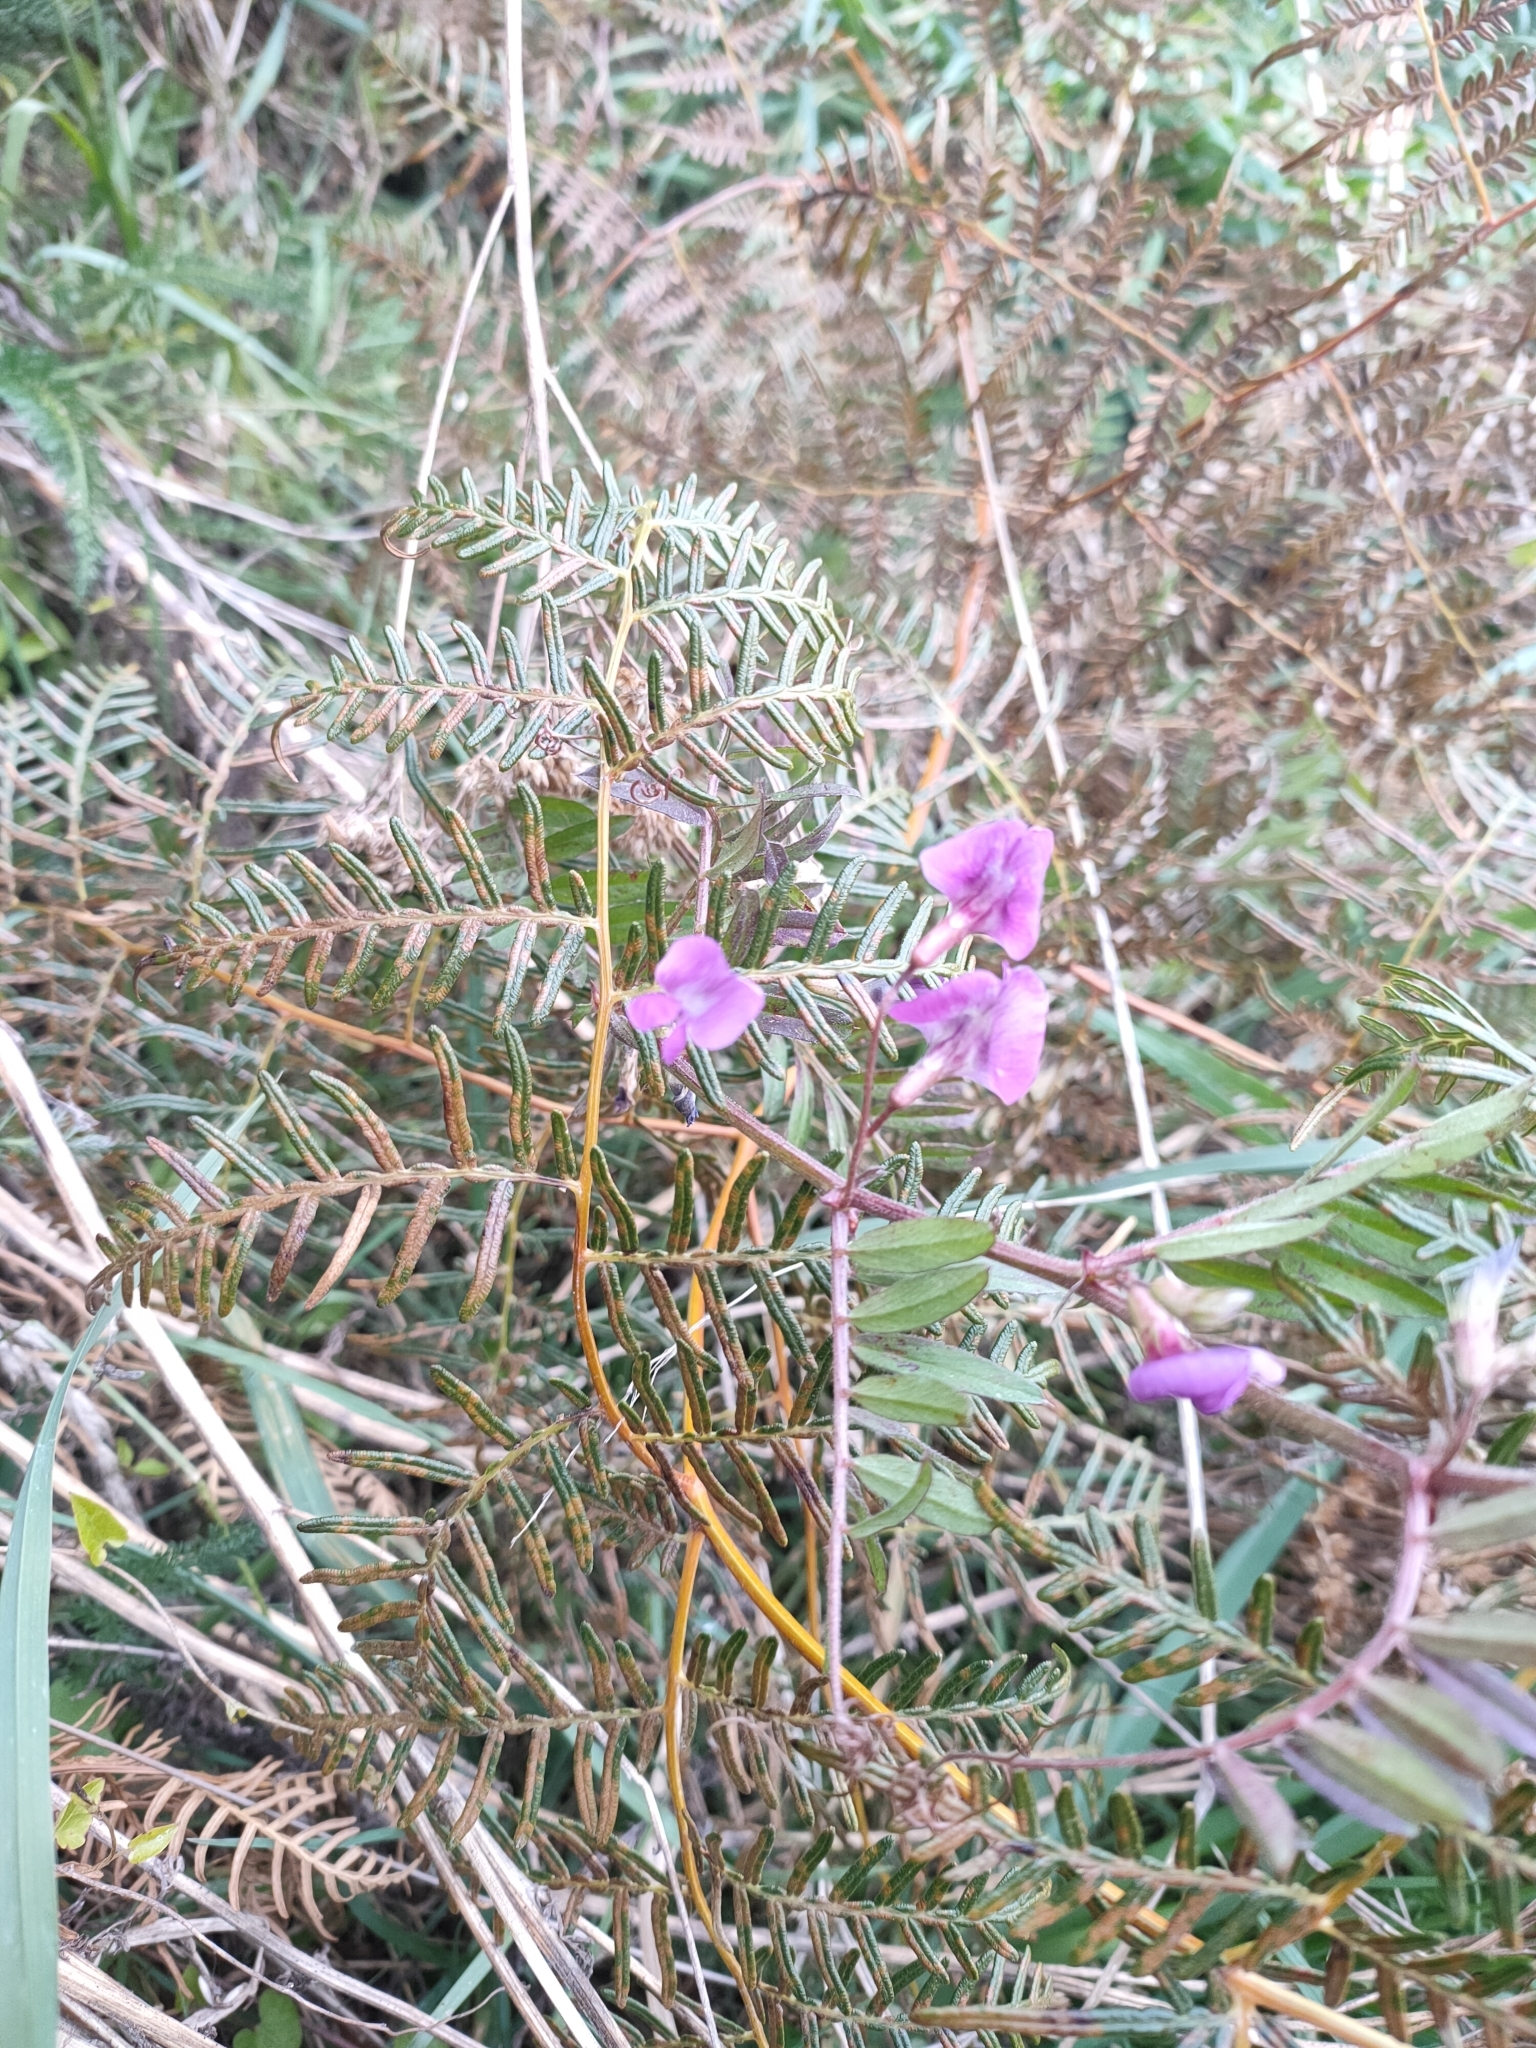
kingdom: Plantae
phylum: Tracheophyta
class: Magnoliopsida
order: Fabales
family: Fabaceae
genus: Vicia
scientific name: Vicia sativa
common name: Garden vetch
